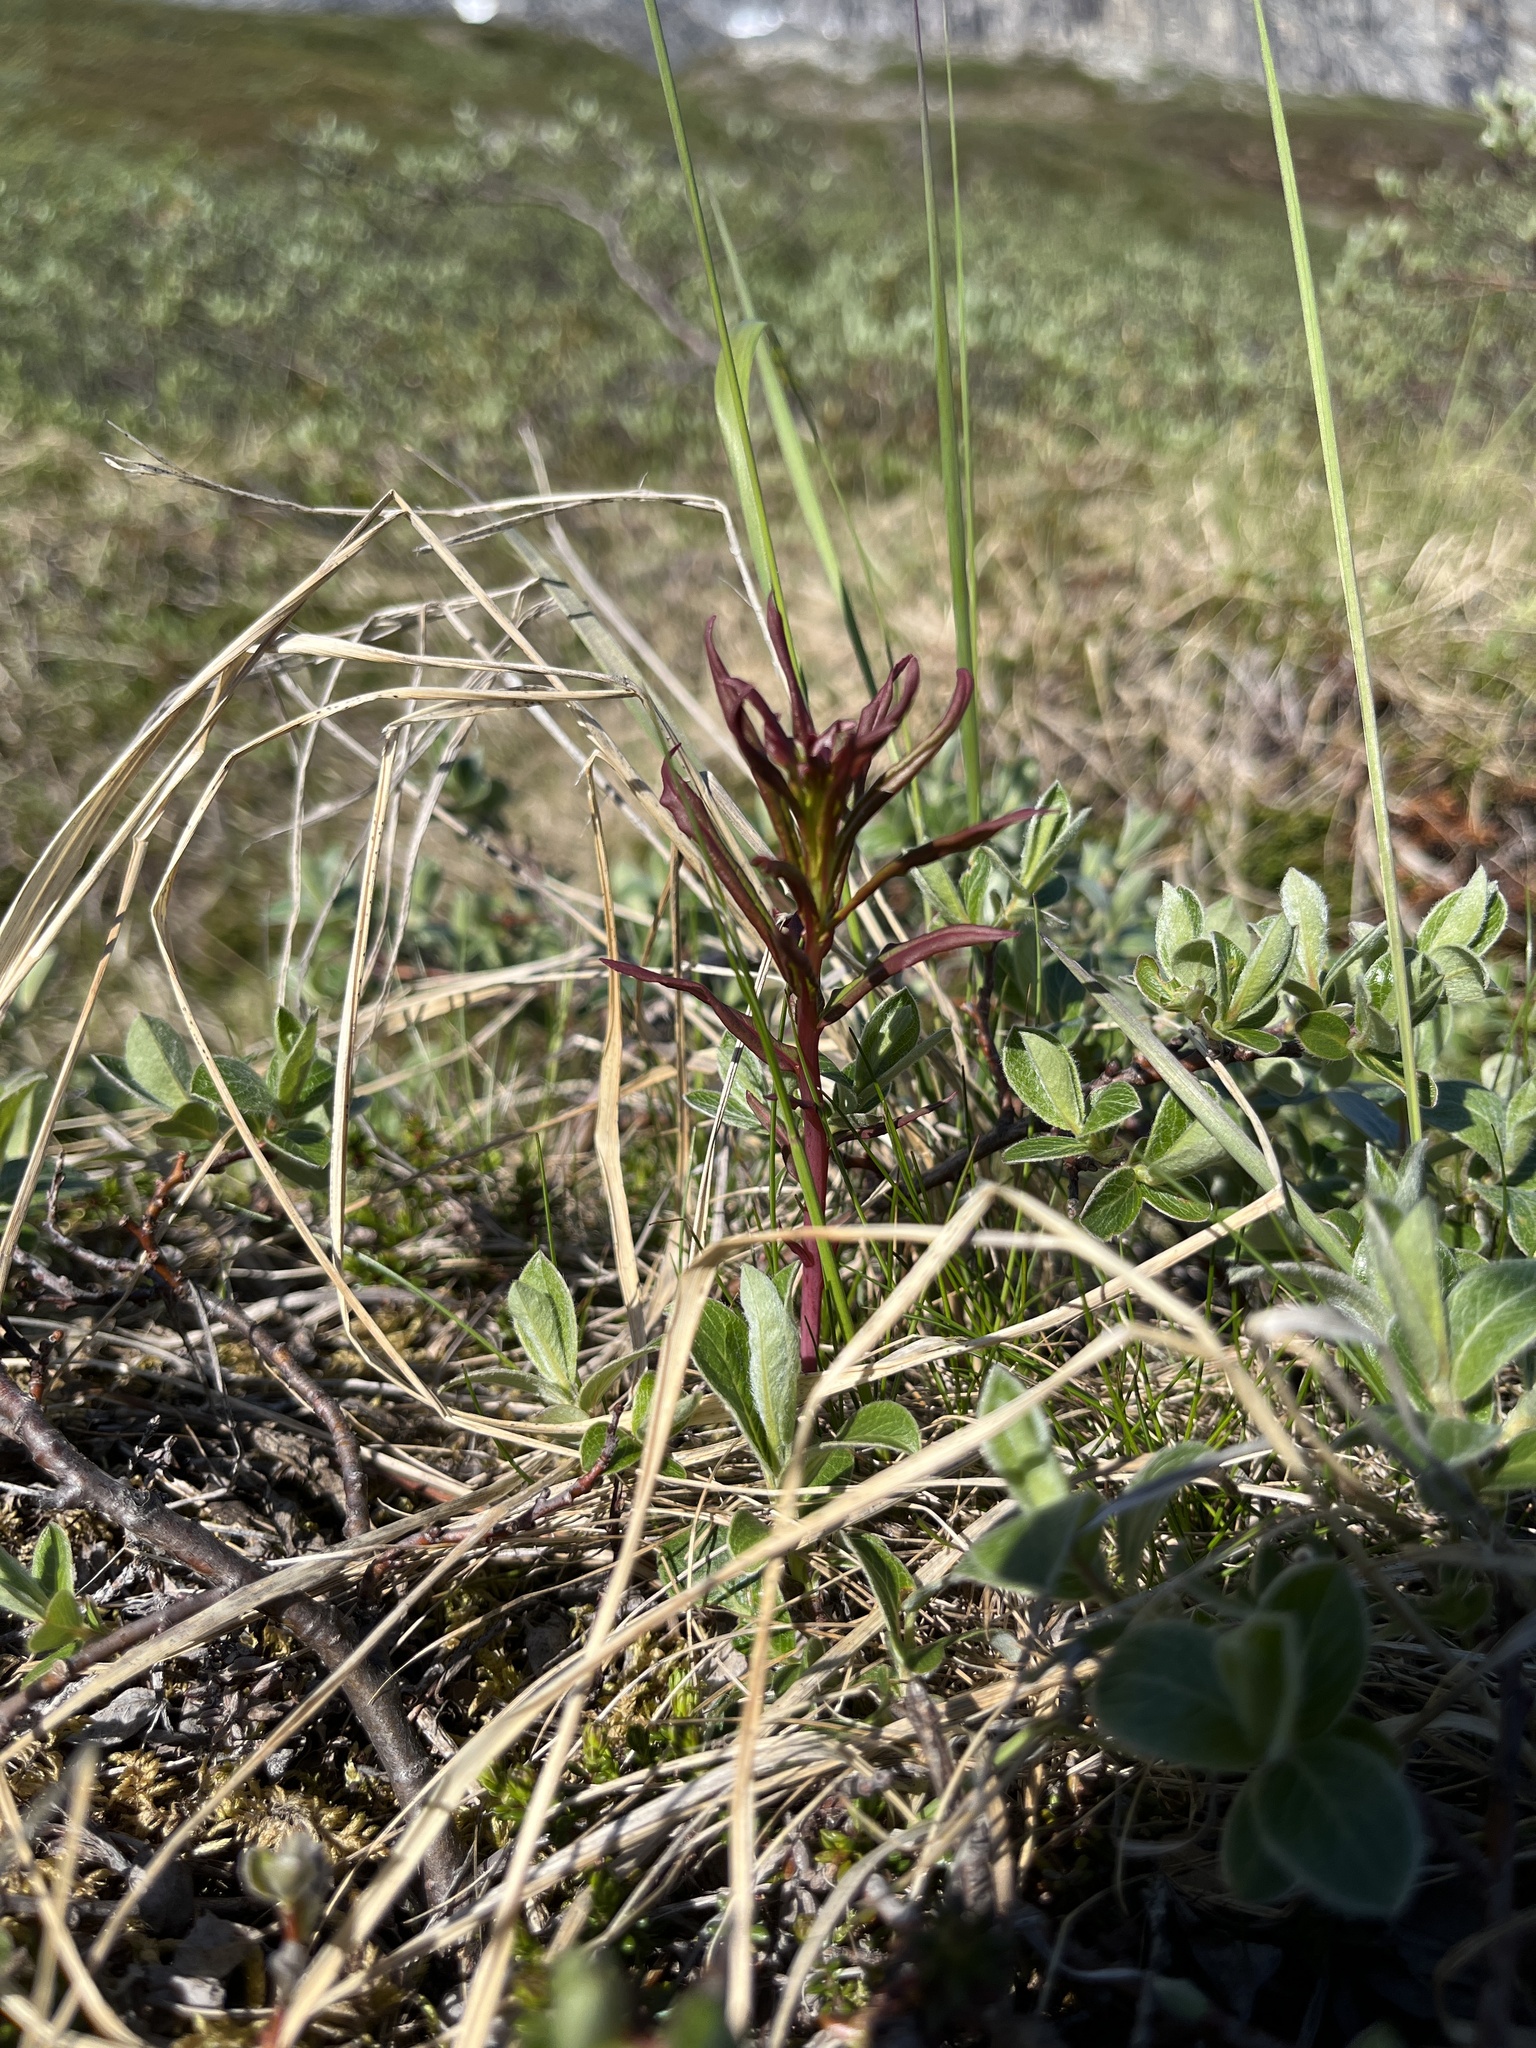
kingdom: Plantae
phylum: Tracheophyta
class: Magnoliopsida
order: Myrtales
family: Onagraceae
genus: Chamaenerion
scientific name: Chamaenerion angustifolium
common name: Fireweed
